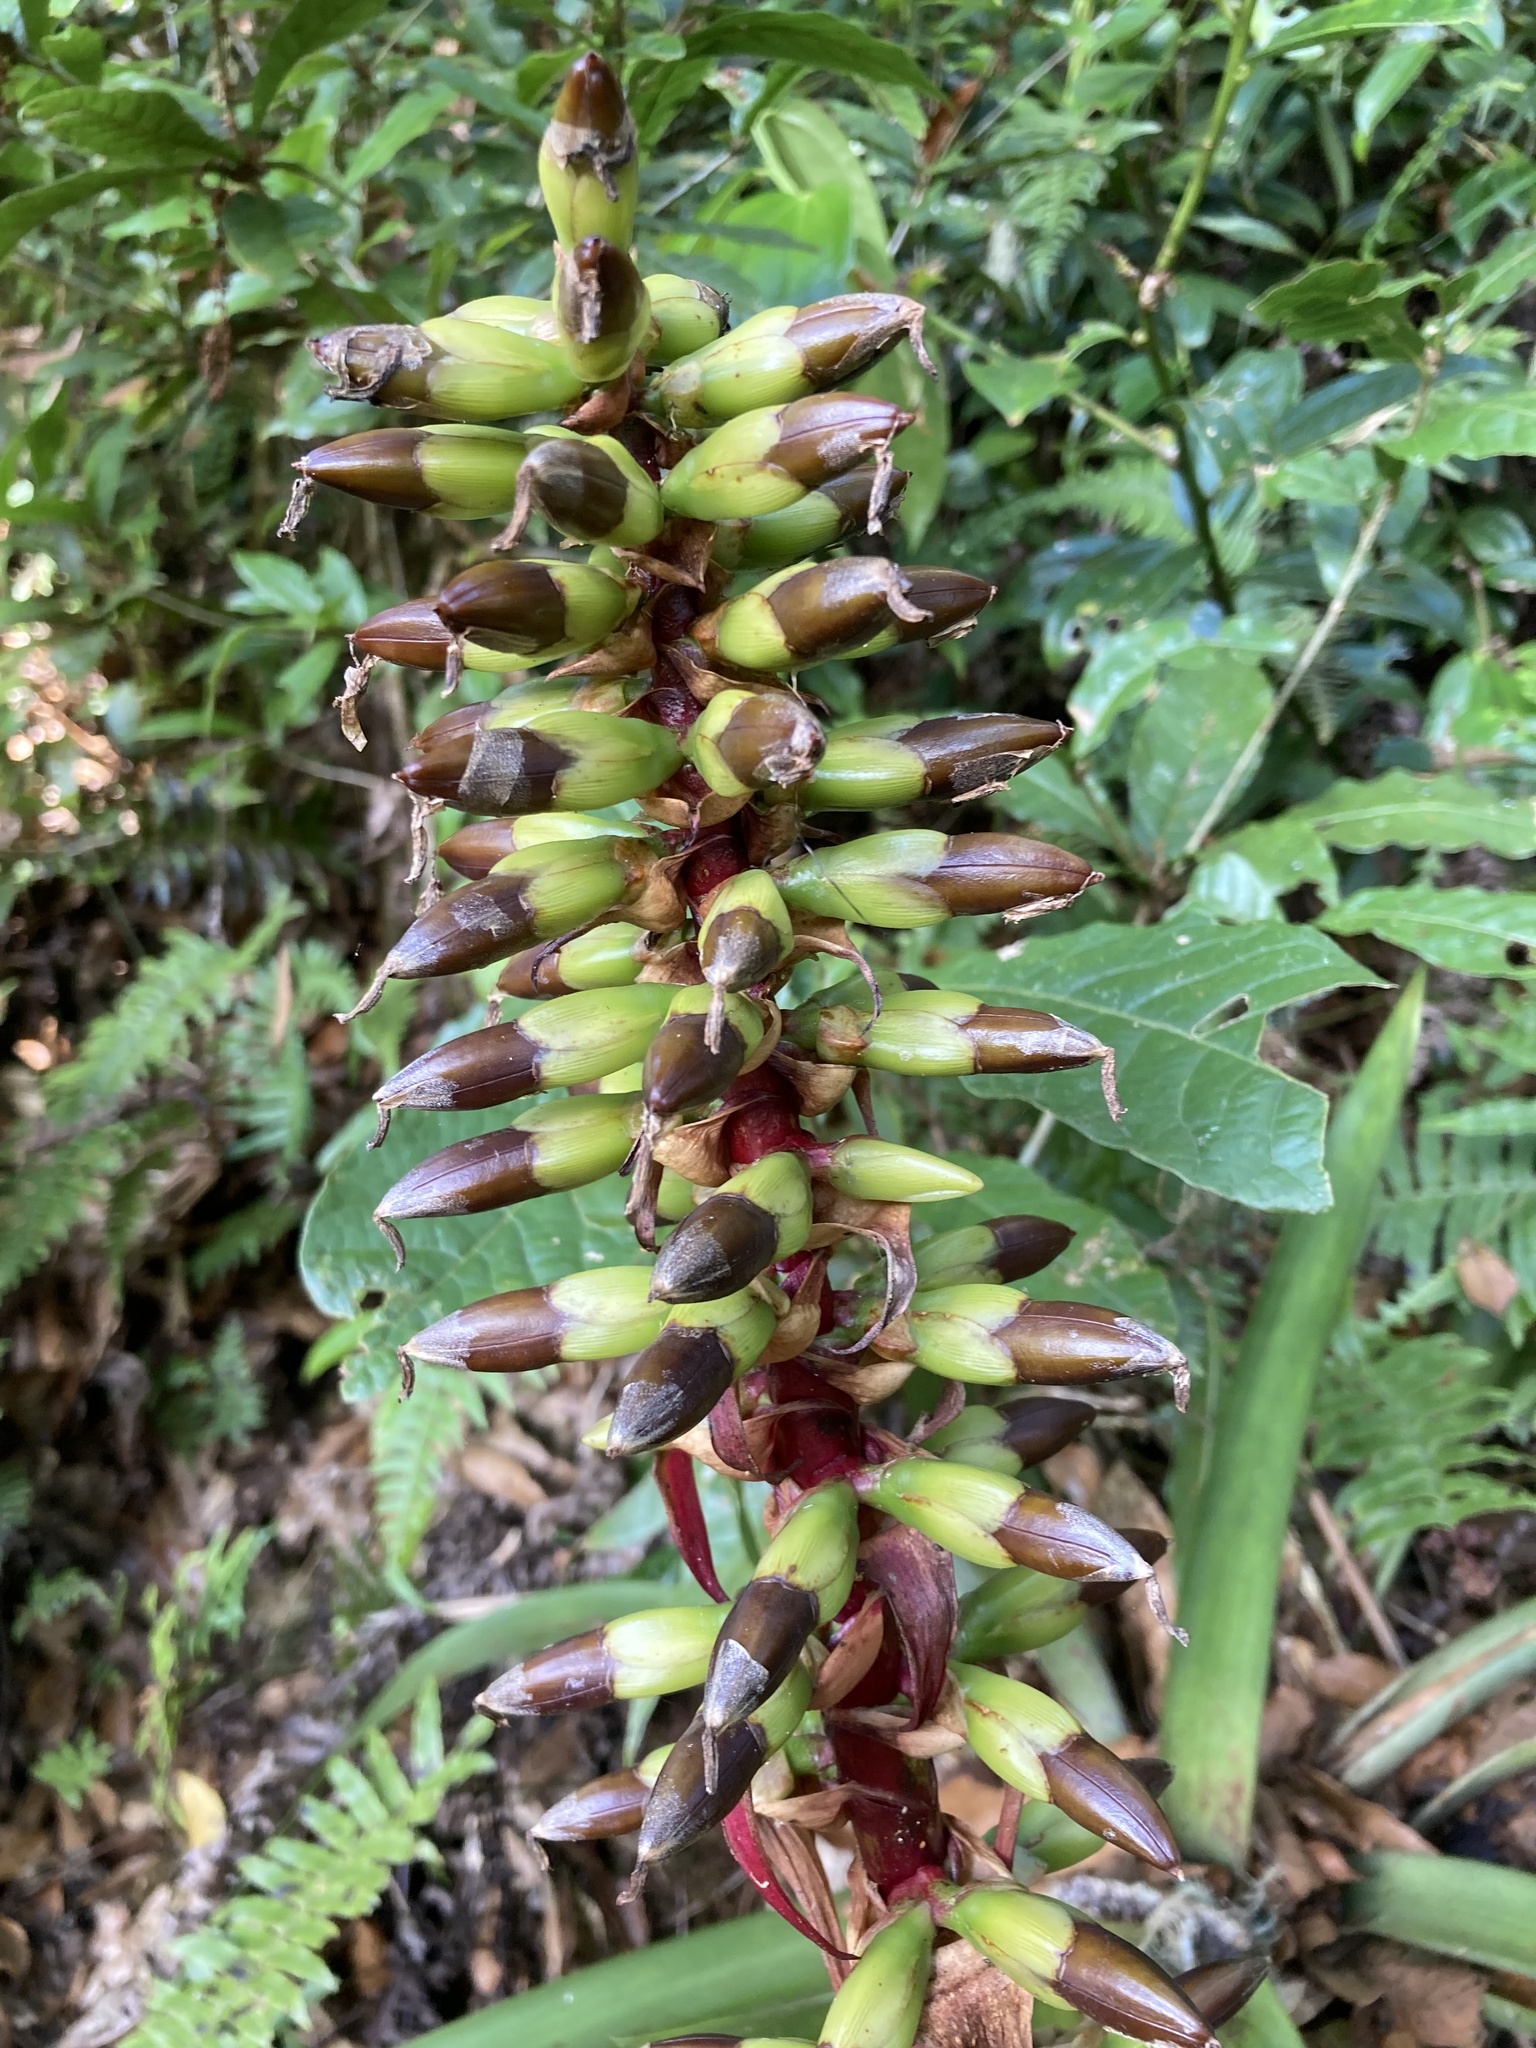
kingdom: Plantae
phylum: Tracheophyta
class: Liliopsida
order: Poales
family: Bromeliaceae
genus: Werauhia
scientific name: Werauhia ororiensis
